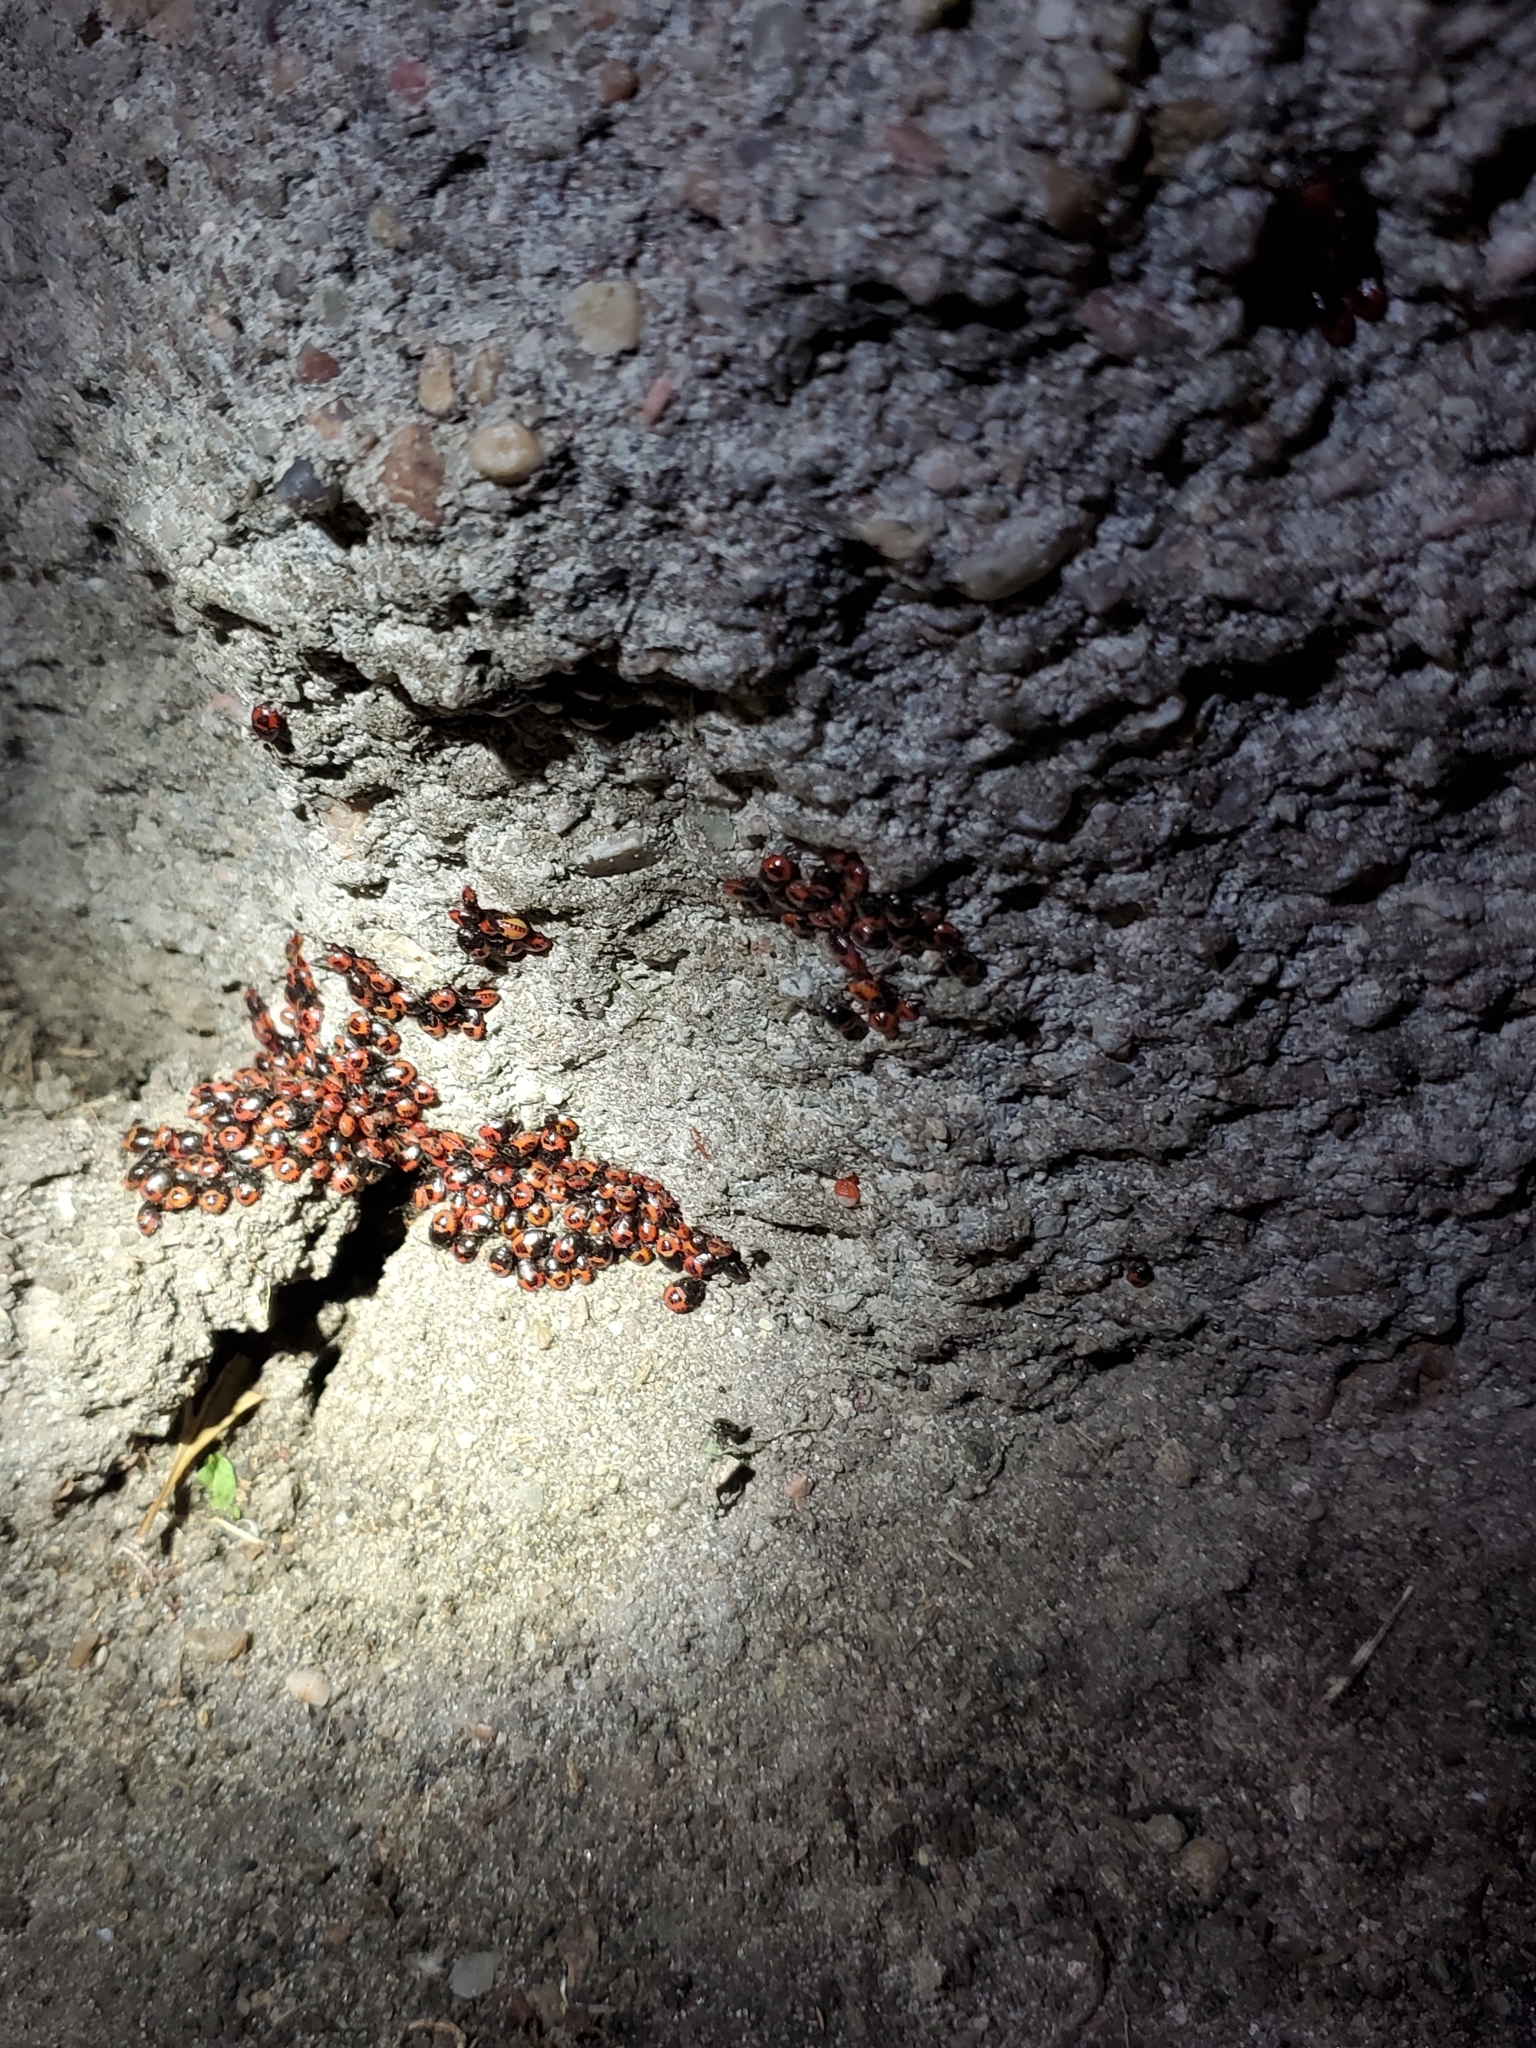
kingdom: Animalia
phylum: Arthropoda
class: Insecta
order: Hemiptera
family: Cydnidae
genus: Sehirus
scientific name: Sehirus cinctus
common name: White-margined burrower bug
